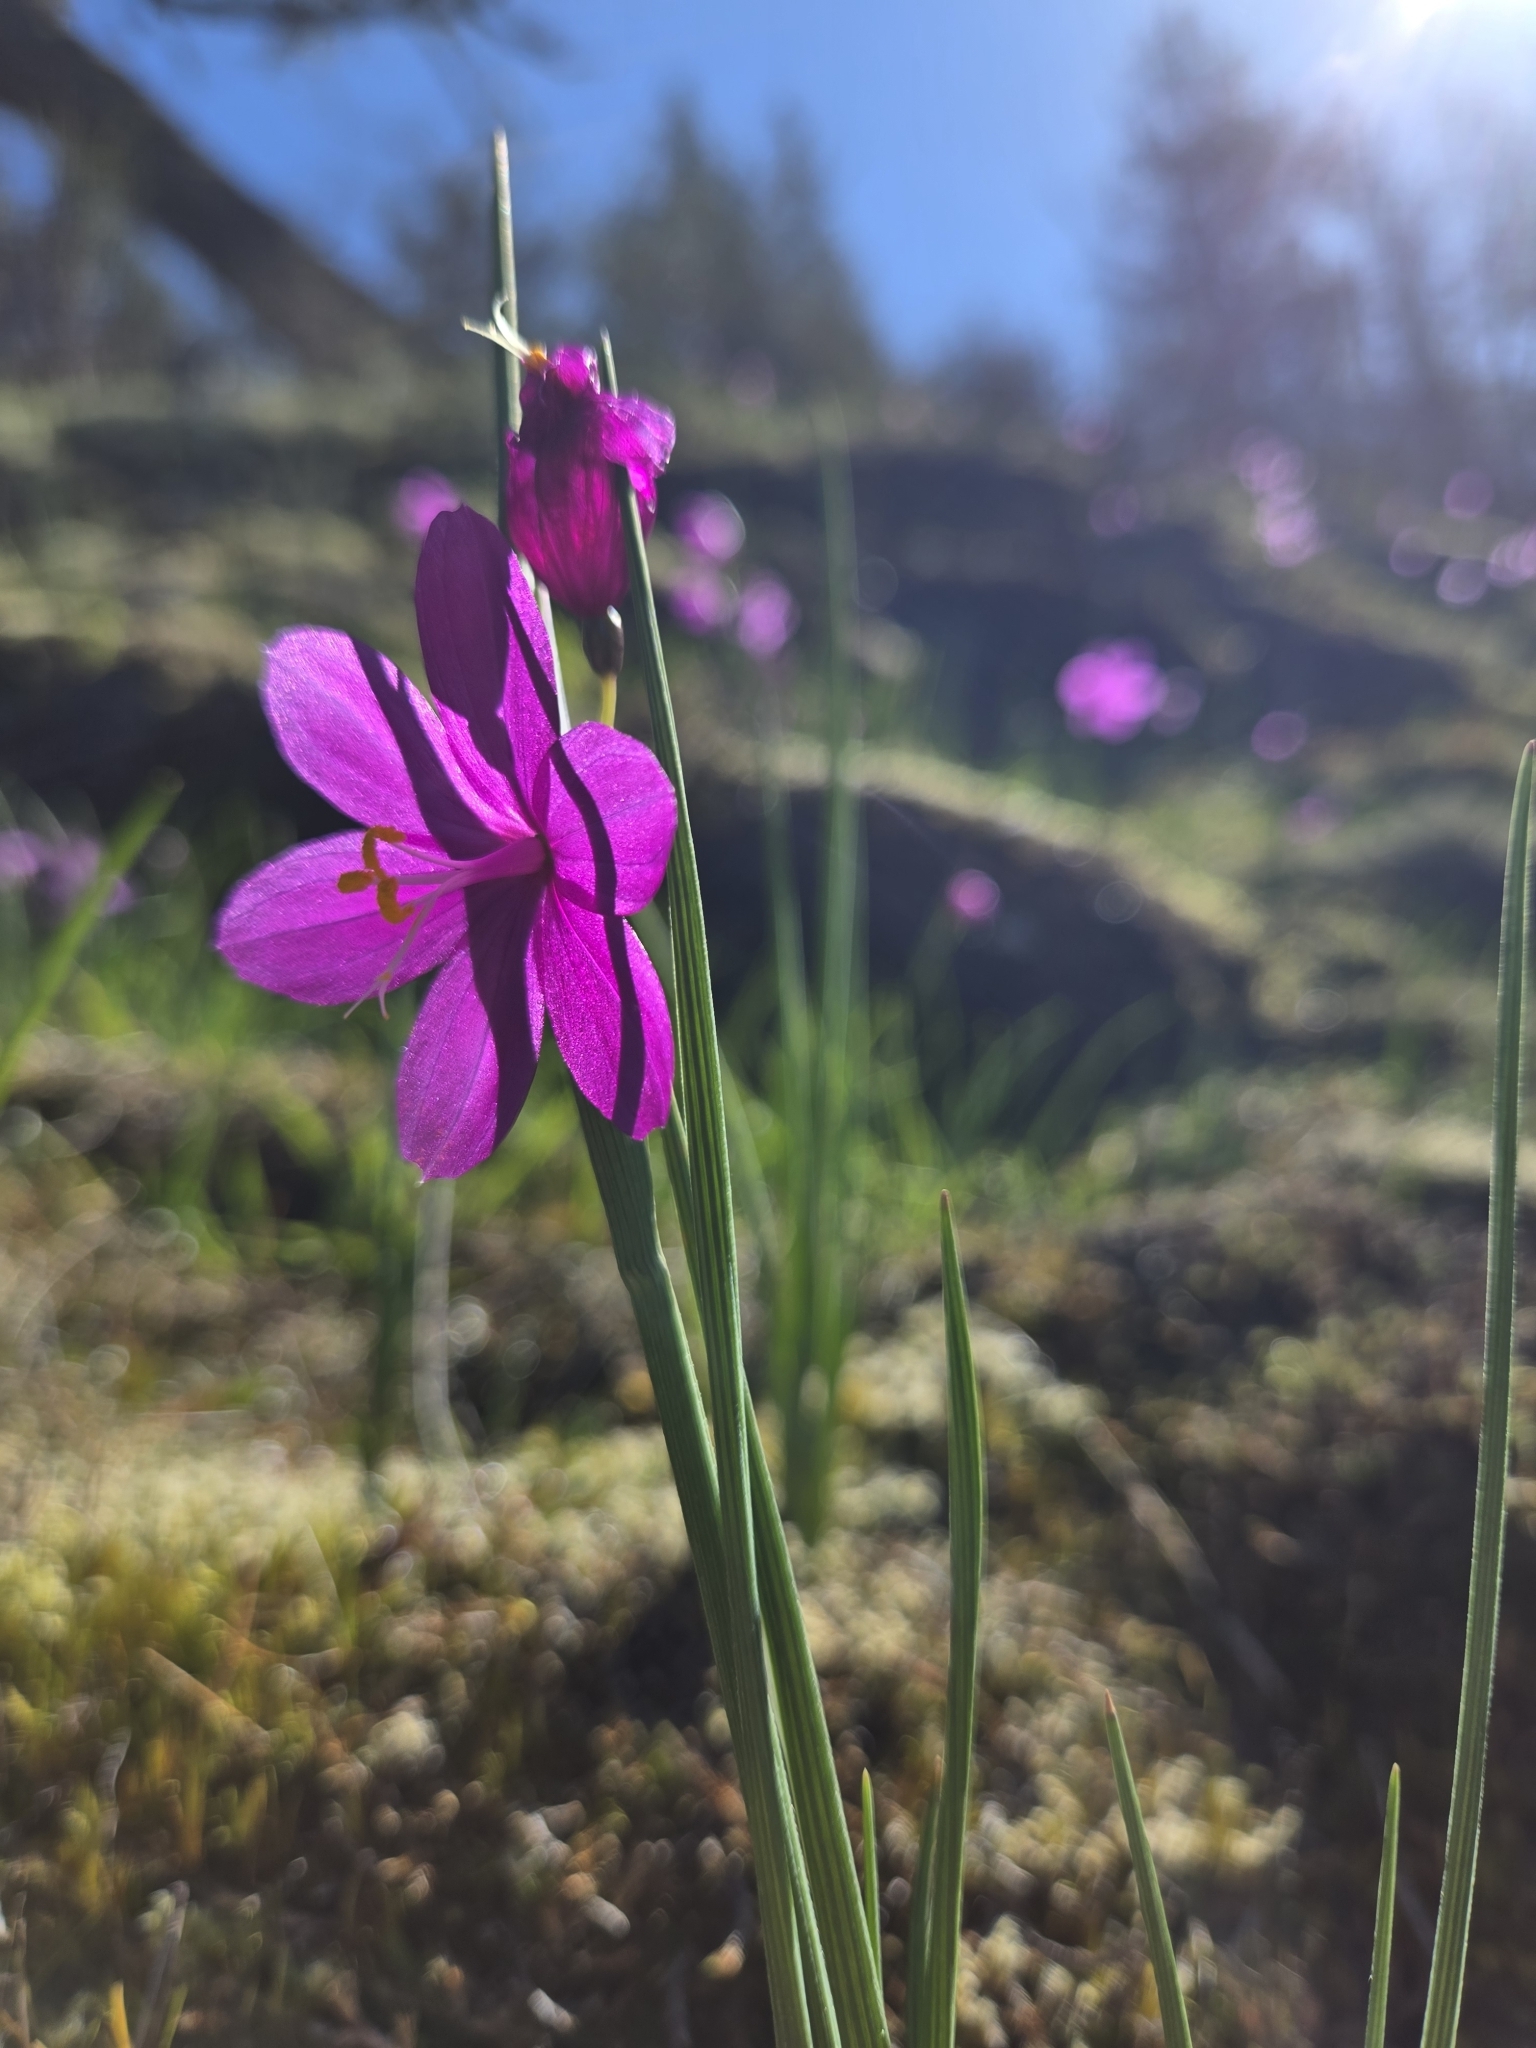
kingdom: Plantae
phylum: Tracheophyta
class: Liliopsida
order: Asparagales
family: Iridaceae
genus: Olsynium
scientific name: Olsynium douglasii
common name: Douglas' grasswidow
